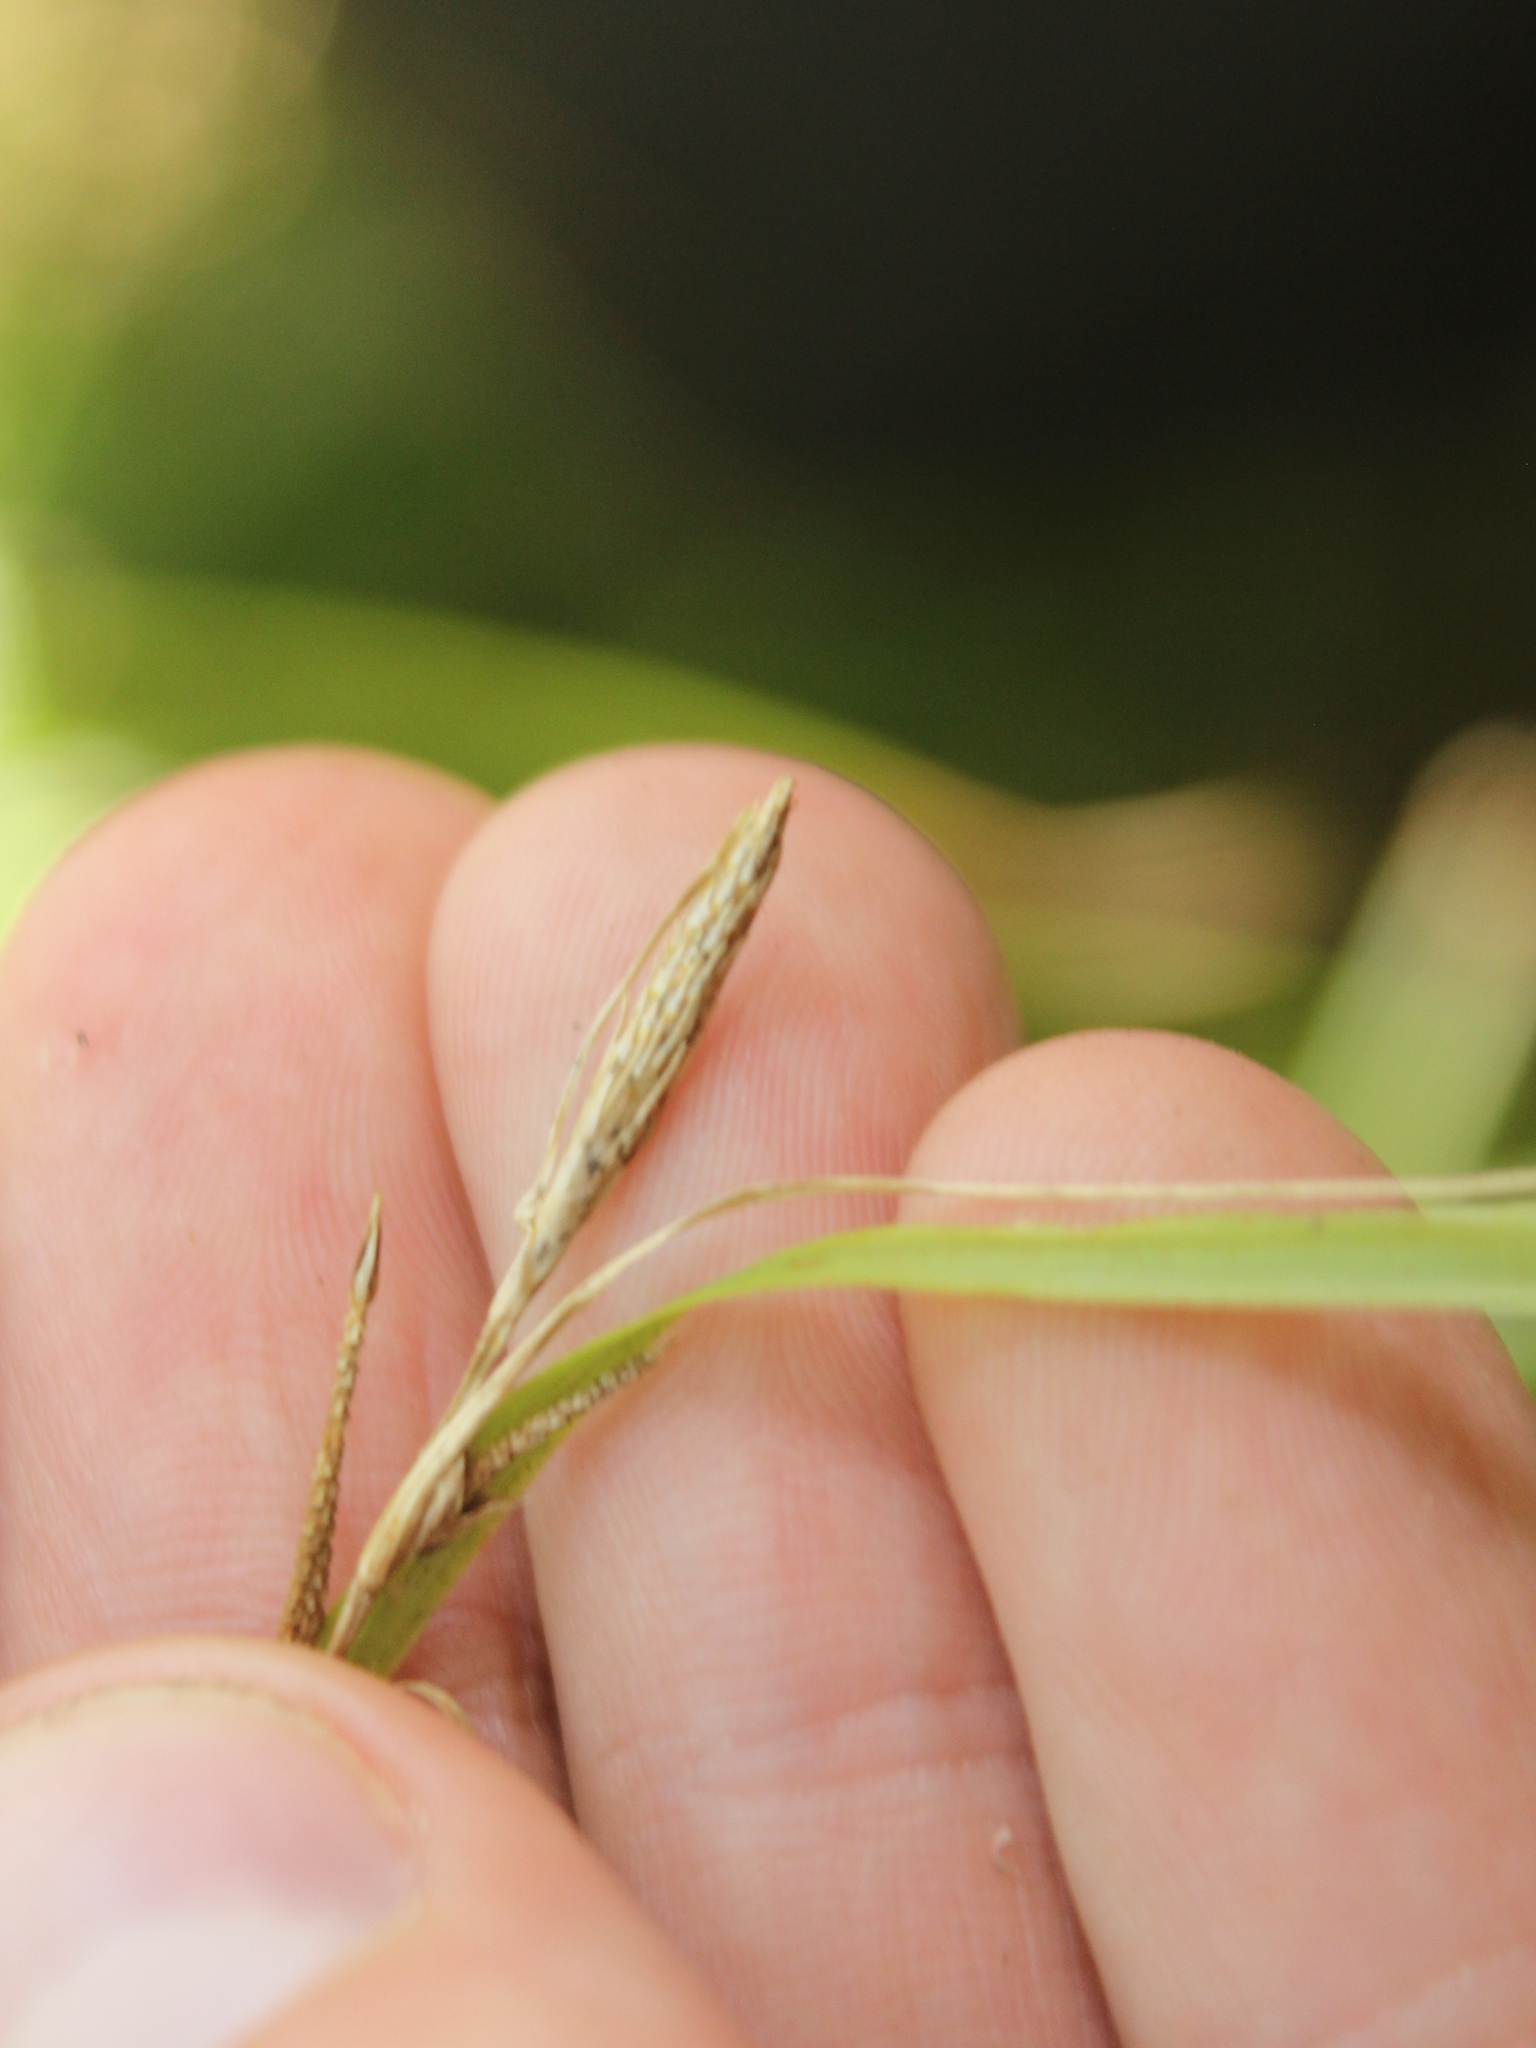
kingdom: Plantae
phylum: Tracheophyta
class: Liliopsida
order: Poales
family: Cyperaceae
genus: Machaerina
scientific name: Machaerina tenax
